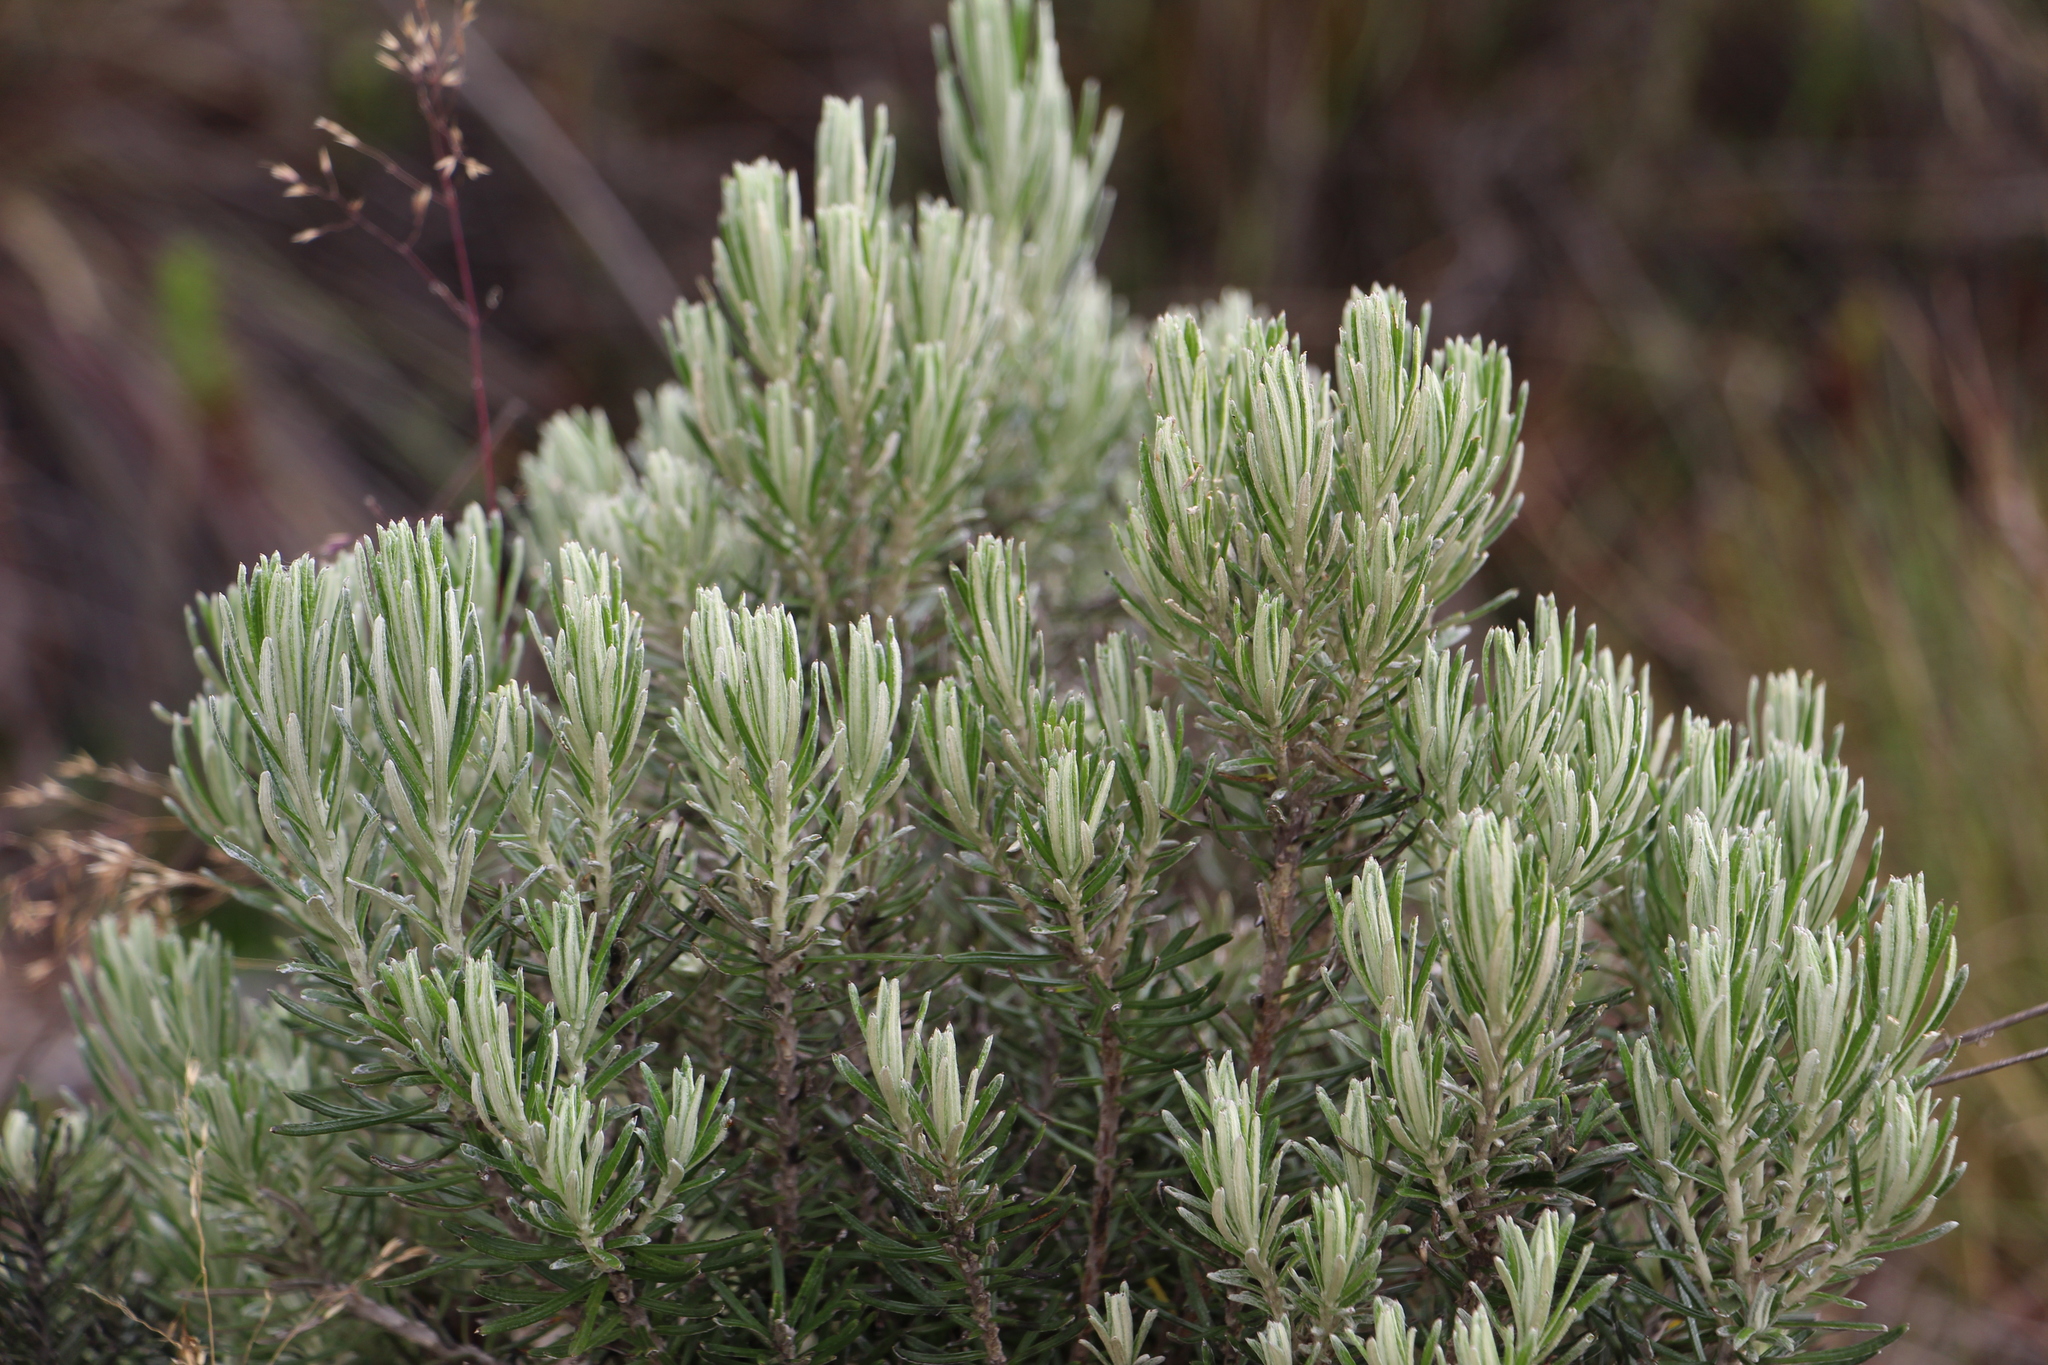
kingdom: Plantae
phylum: Tracheophyta
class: Magnoliopsida
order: Asterales
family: Asteraceae
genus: Linochilus
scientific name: Linochilus rosmarinifolius
